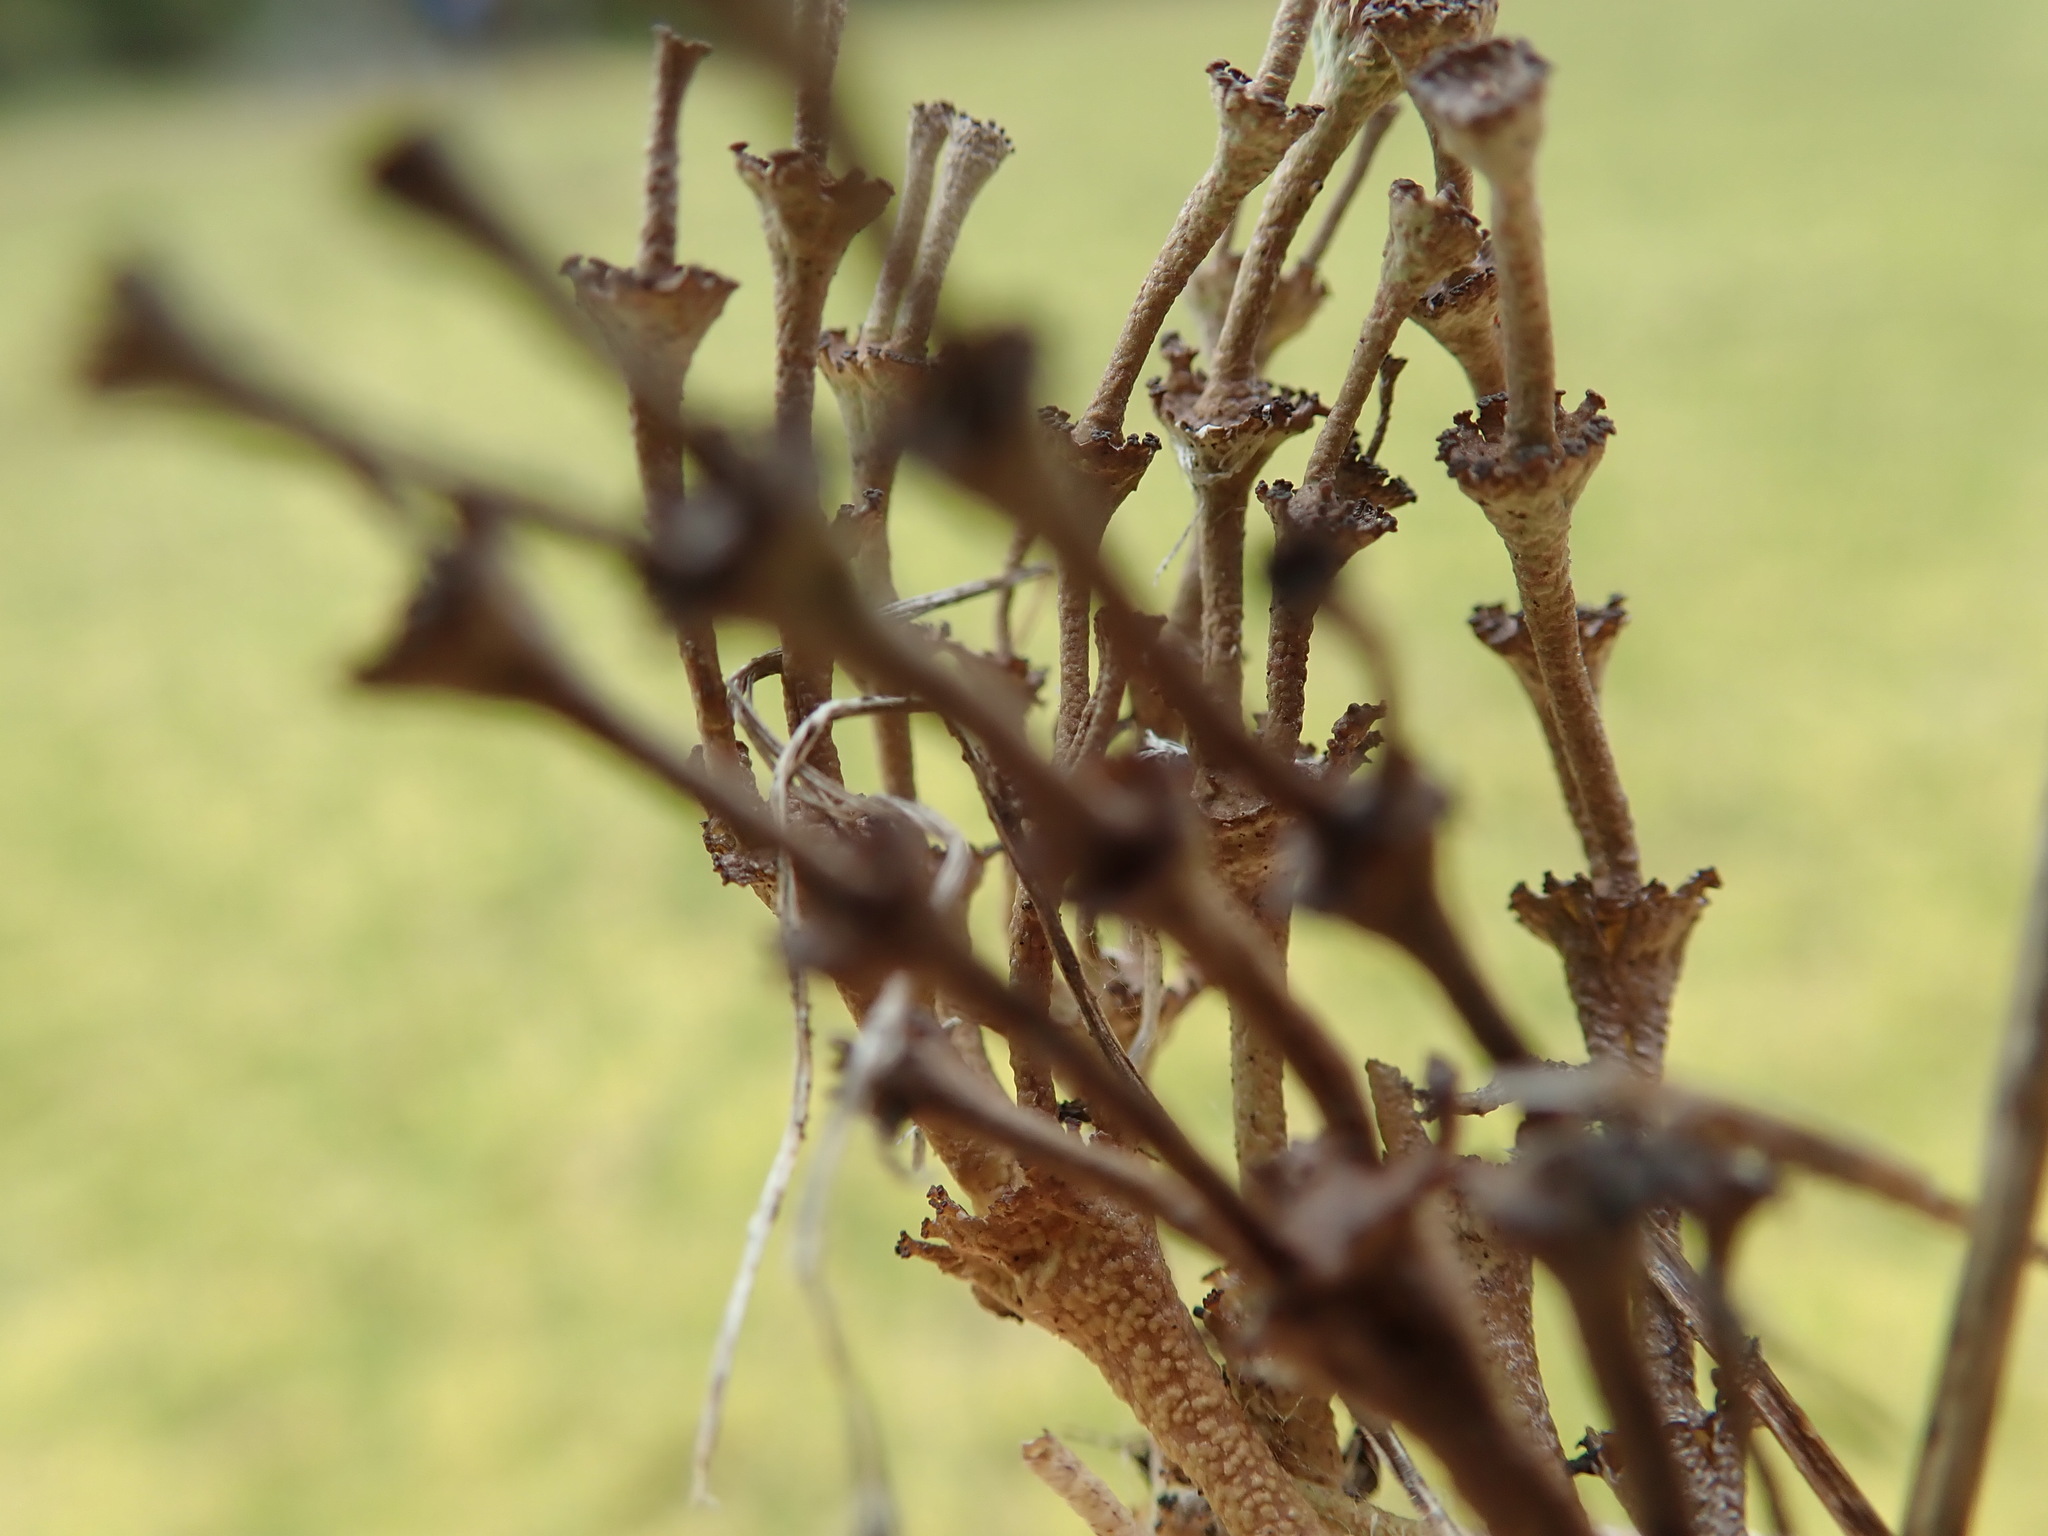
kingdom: Fungi
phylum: Ascomycota
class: Lecanoromycetes
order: Lecanorales
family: Cladoniaceae
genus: Cladonia
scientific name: Cladonia cervicornis
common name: Browned pixie-cup lichen
